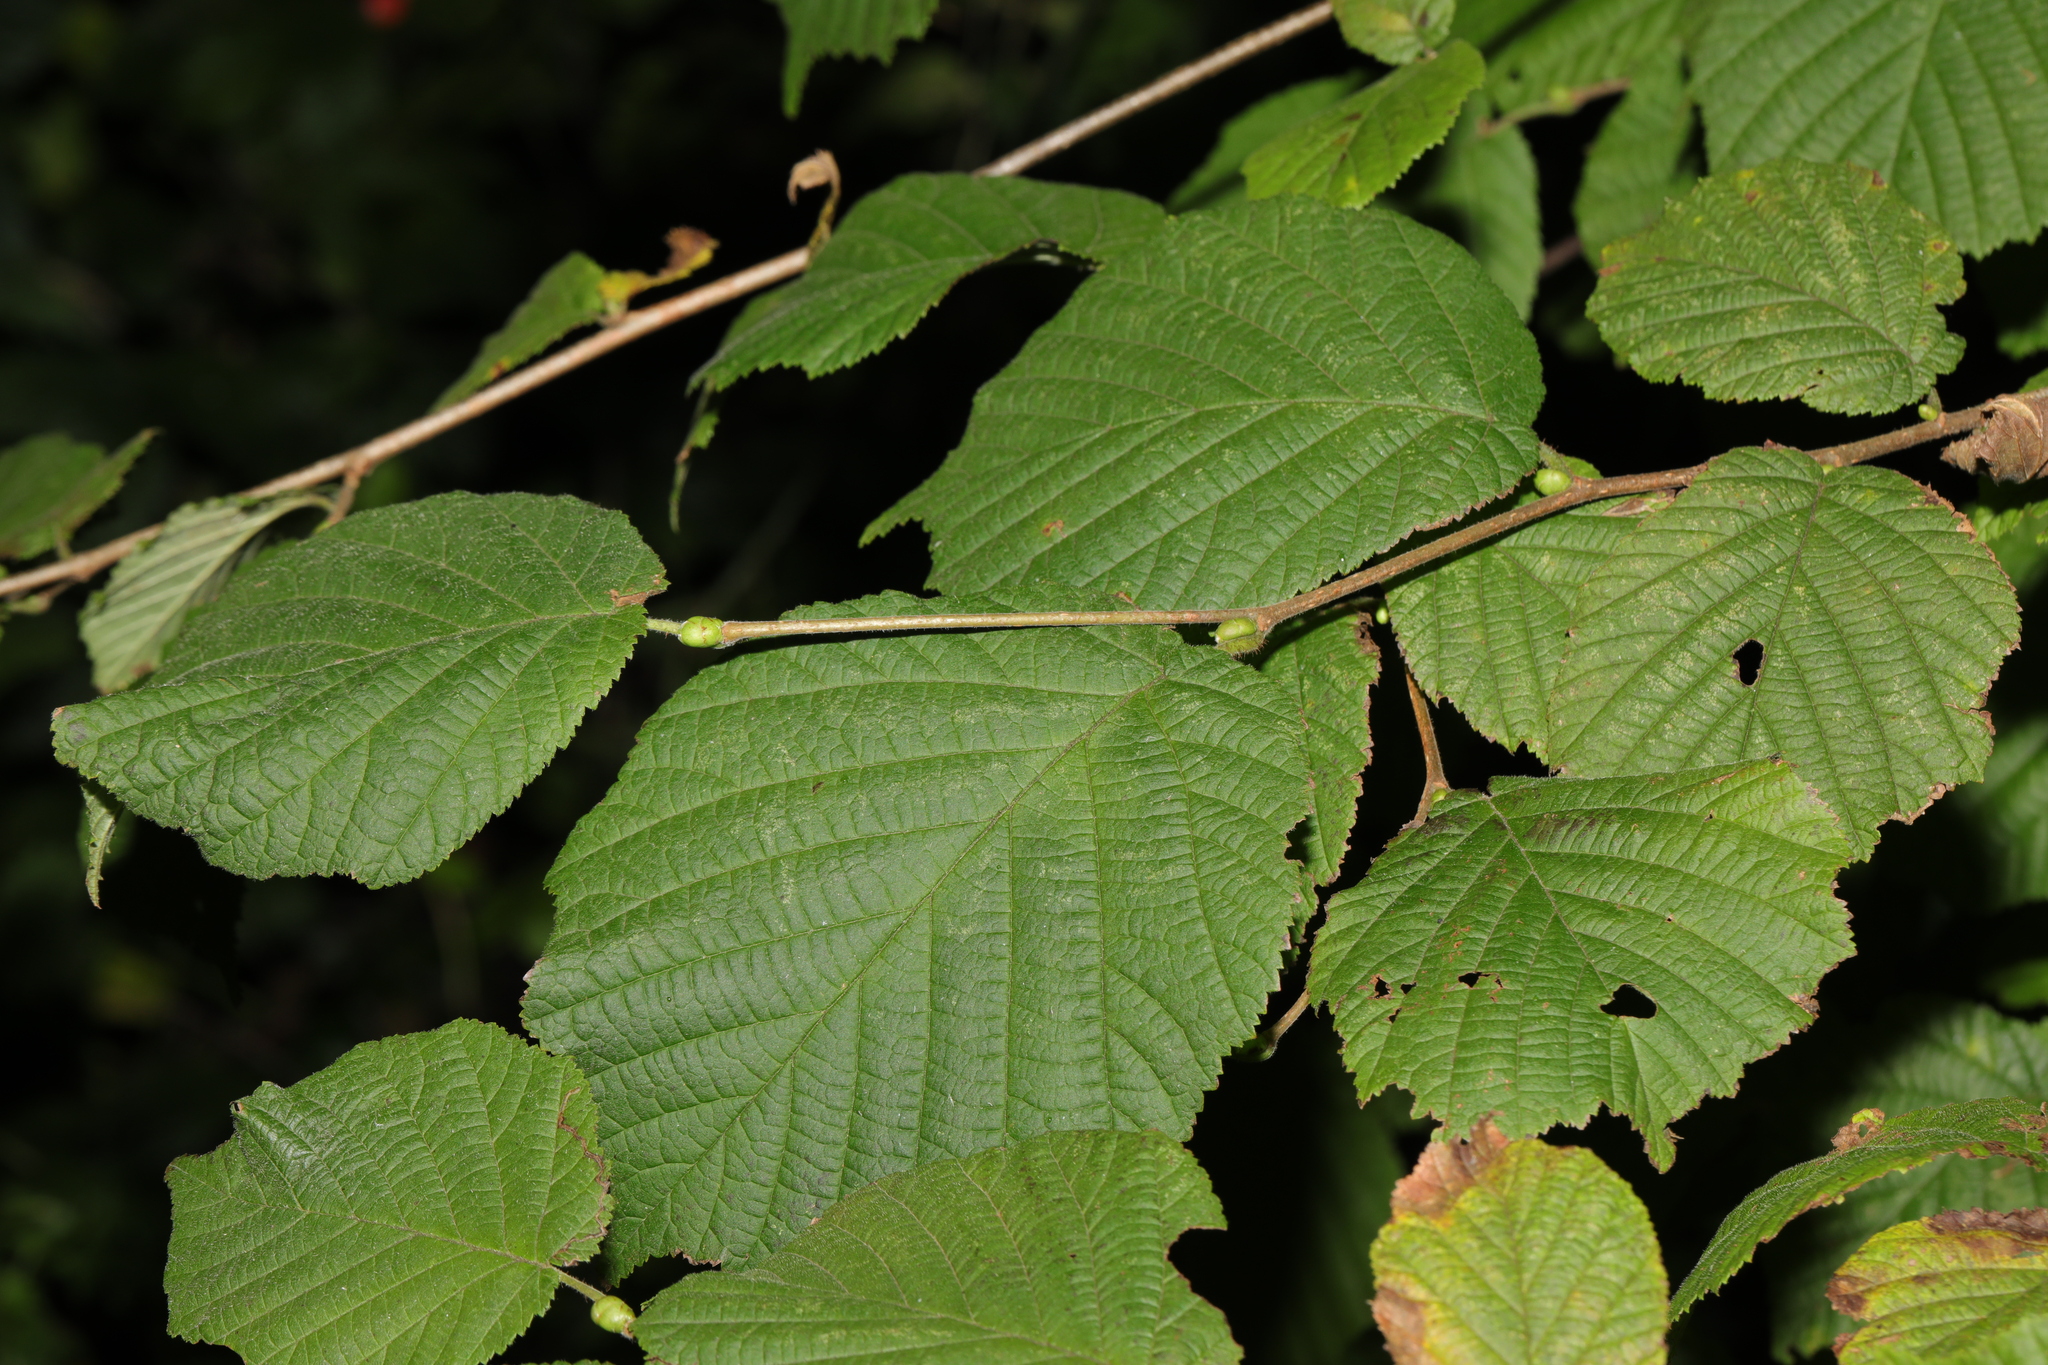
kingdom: Plantae
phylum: Tracheophyta
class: Magnoliopsida
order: Fagales
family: Betulaceae
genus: Corylus
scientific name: Corylus avellana
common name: European hazel
